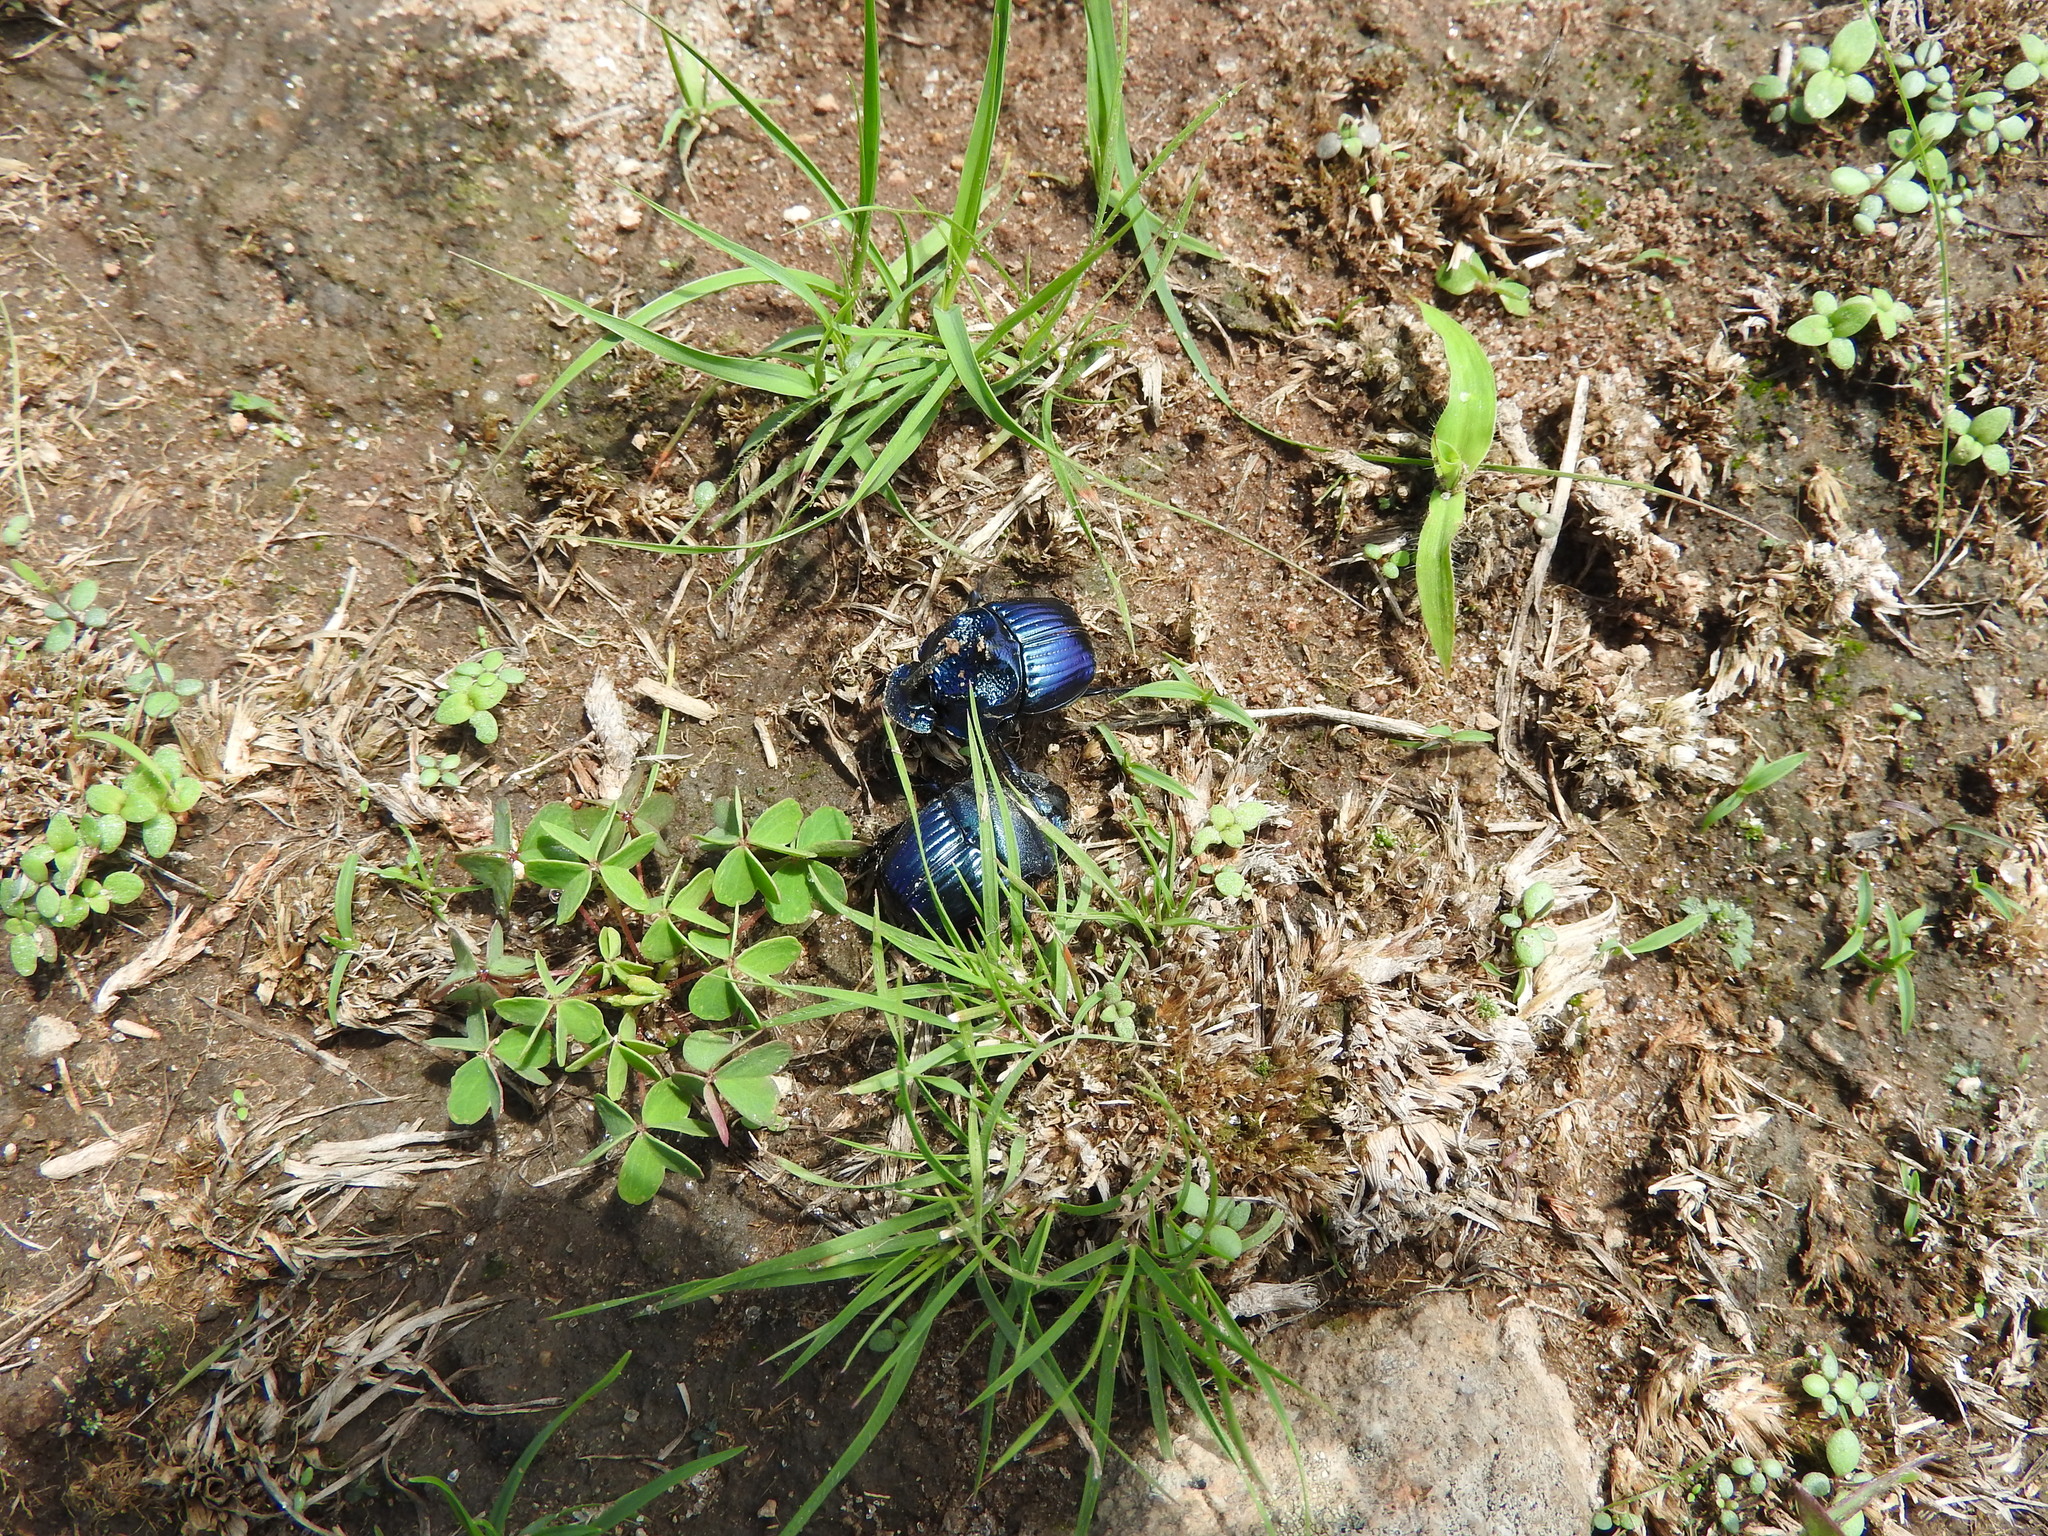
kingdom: Animalia
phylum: Arthropoda
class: Insecta
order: Coleoptera
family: Scarabaeidae
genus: Phanaeus
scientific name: Phanaeus furiosus
